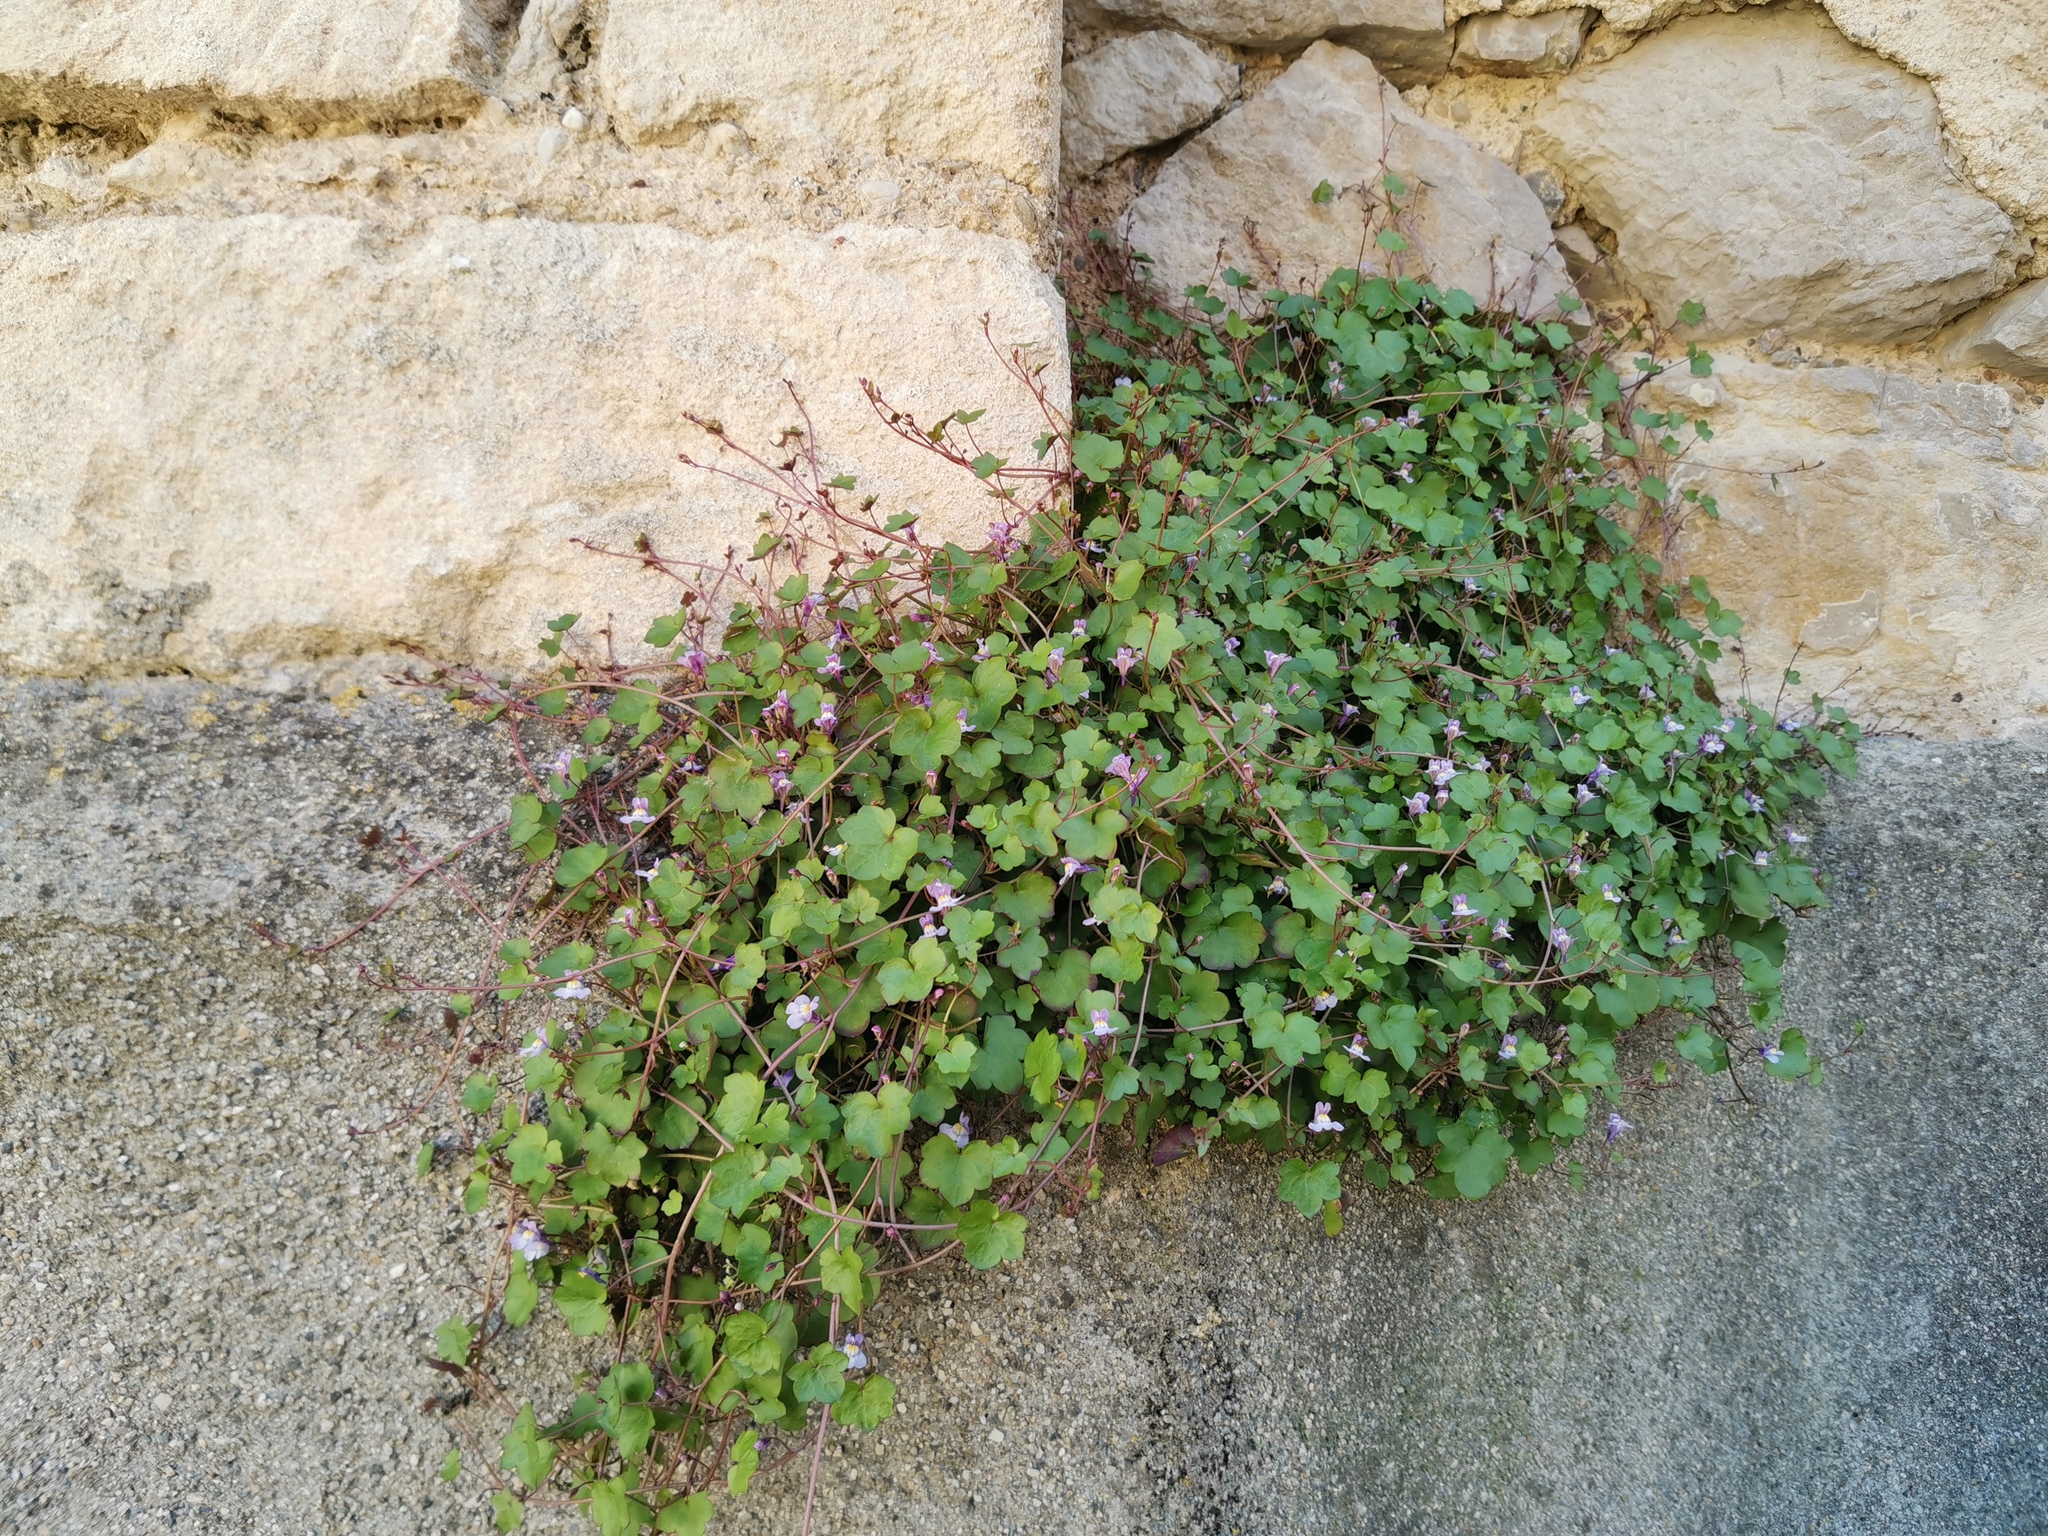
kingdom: Plantae
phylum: Tracheophyta
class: Magnoliopsida
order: Lamiales
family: Plantaginaceae
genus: Cymbalaria
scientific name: Cymbalaria muralis
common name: Ivy-leaved toadflax
